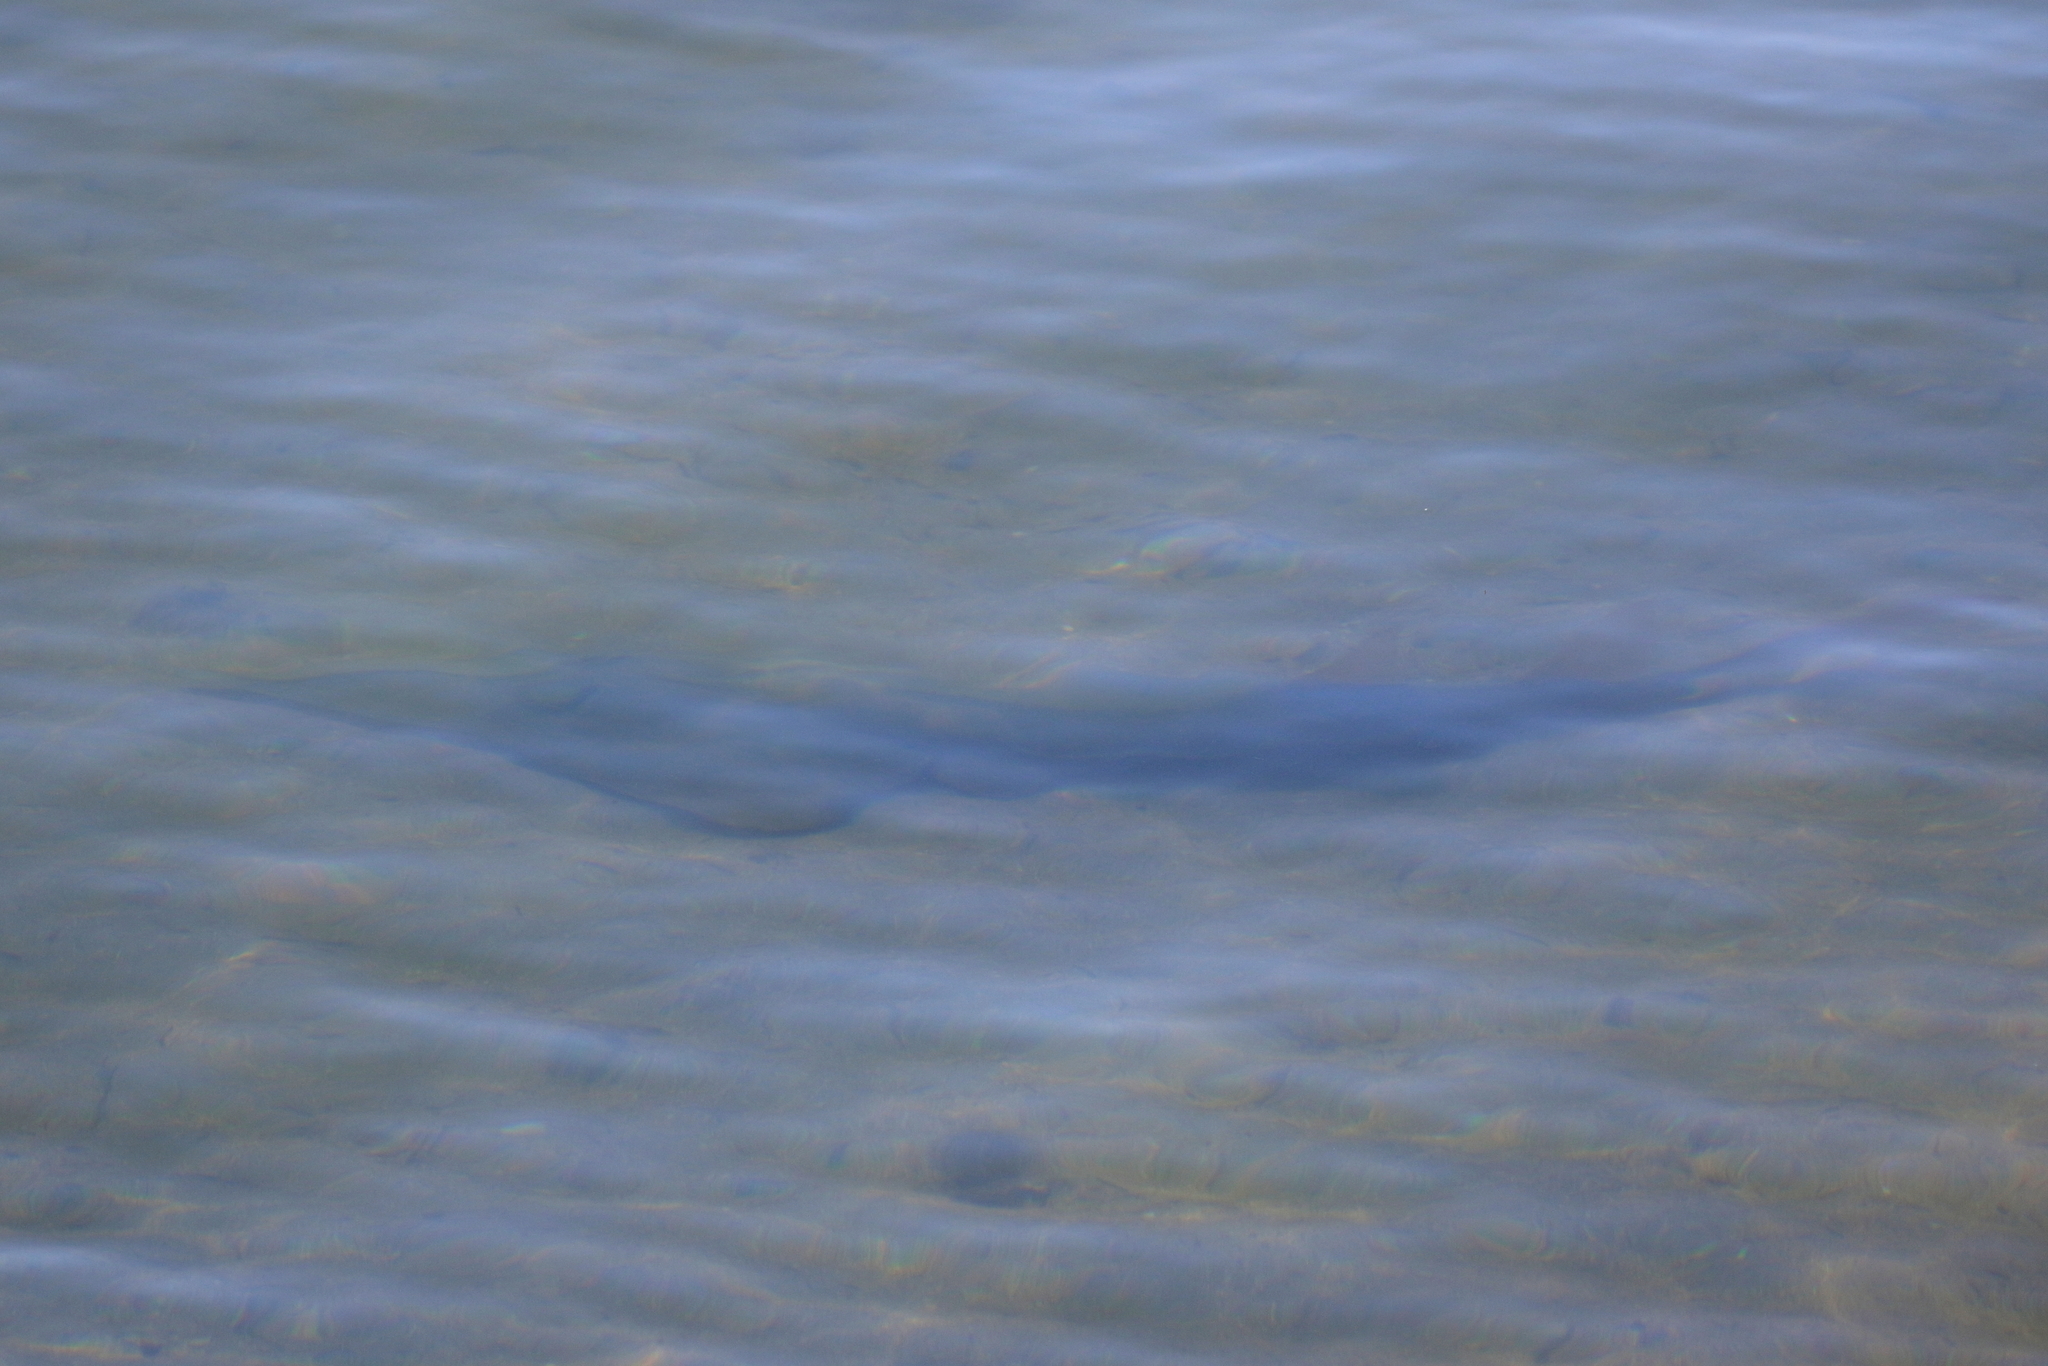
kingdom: Animalia
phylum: Chordata
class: Elasmobranchii
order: Rhinopristiformes
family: Glaucostegidae
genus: Glaucostegus
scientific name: Glaucostegus typus
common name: Giant shovelnose ray
